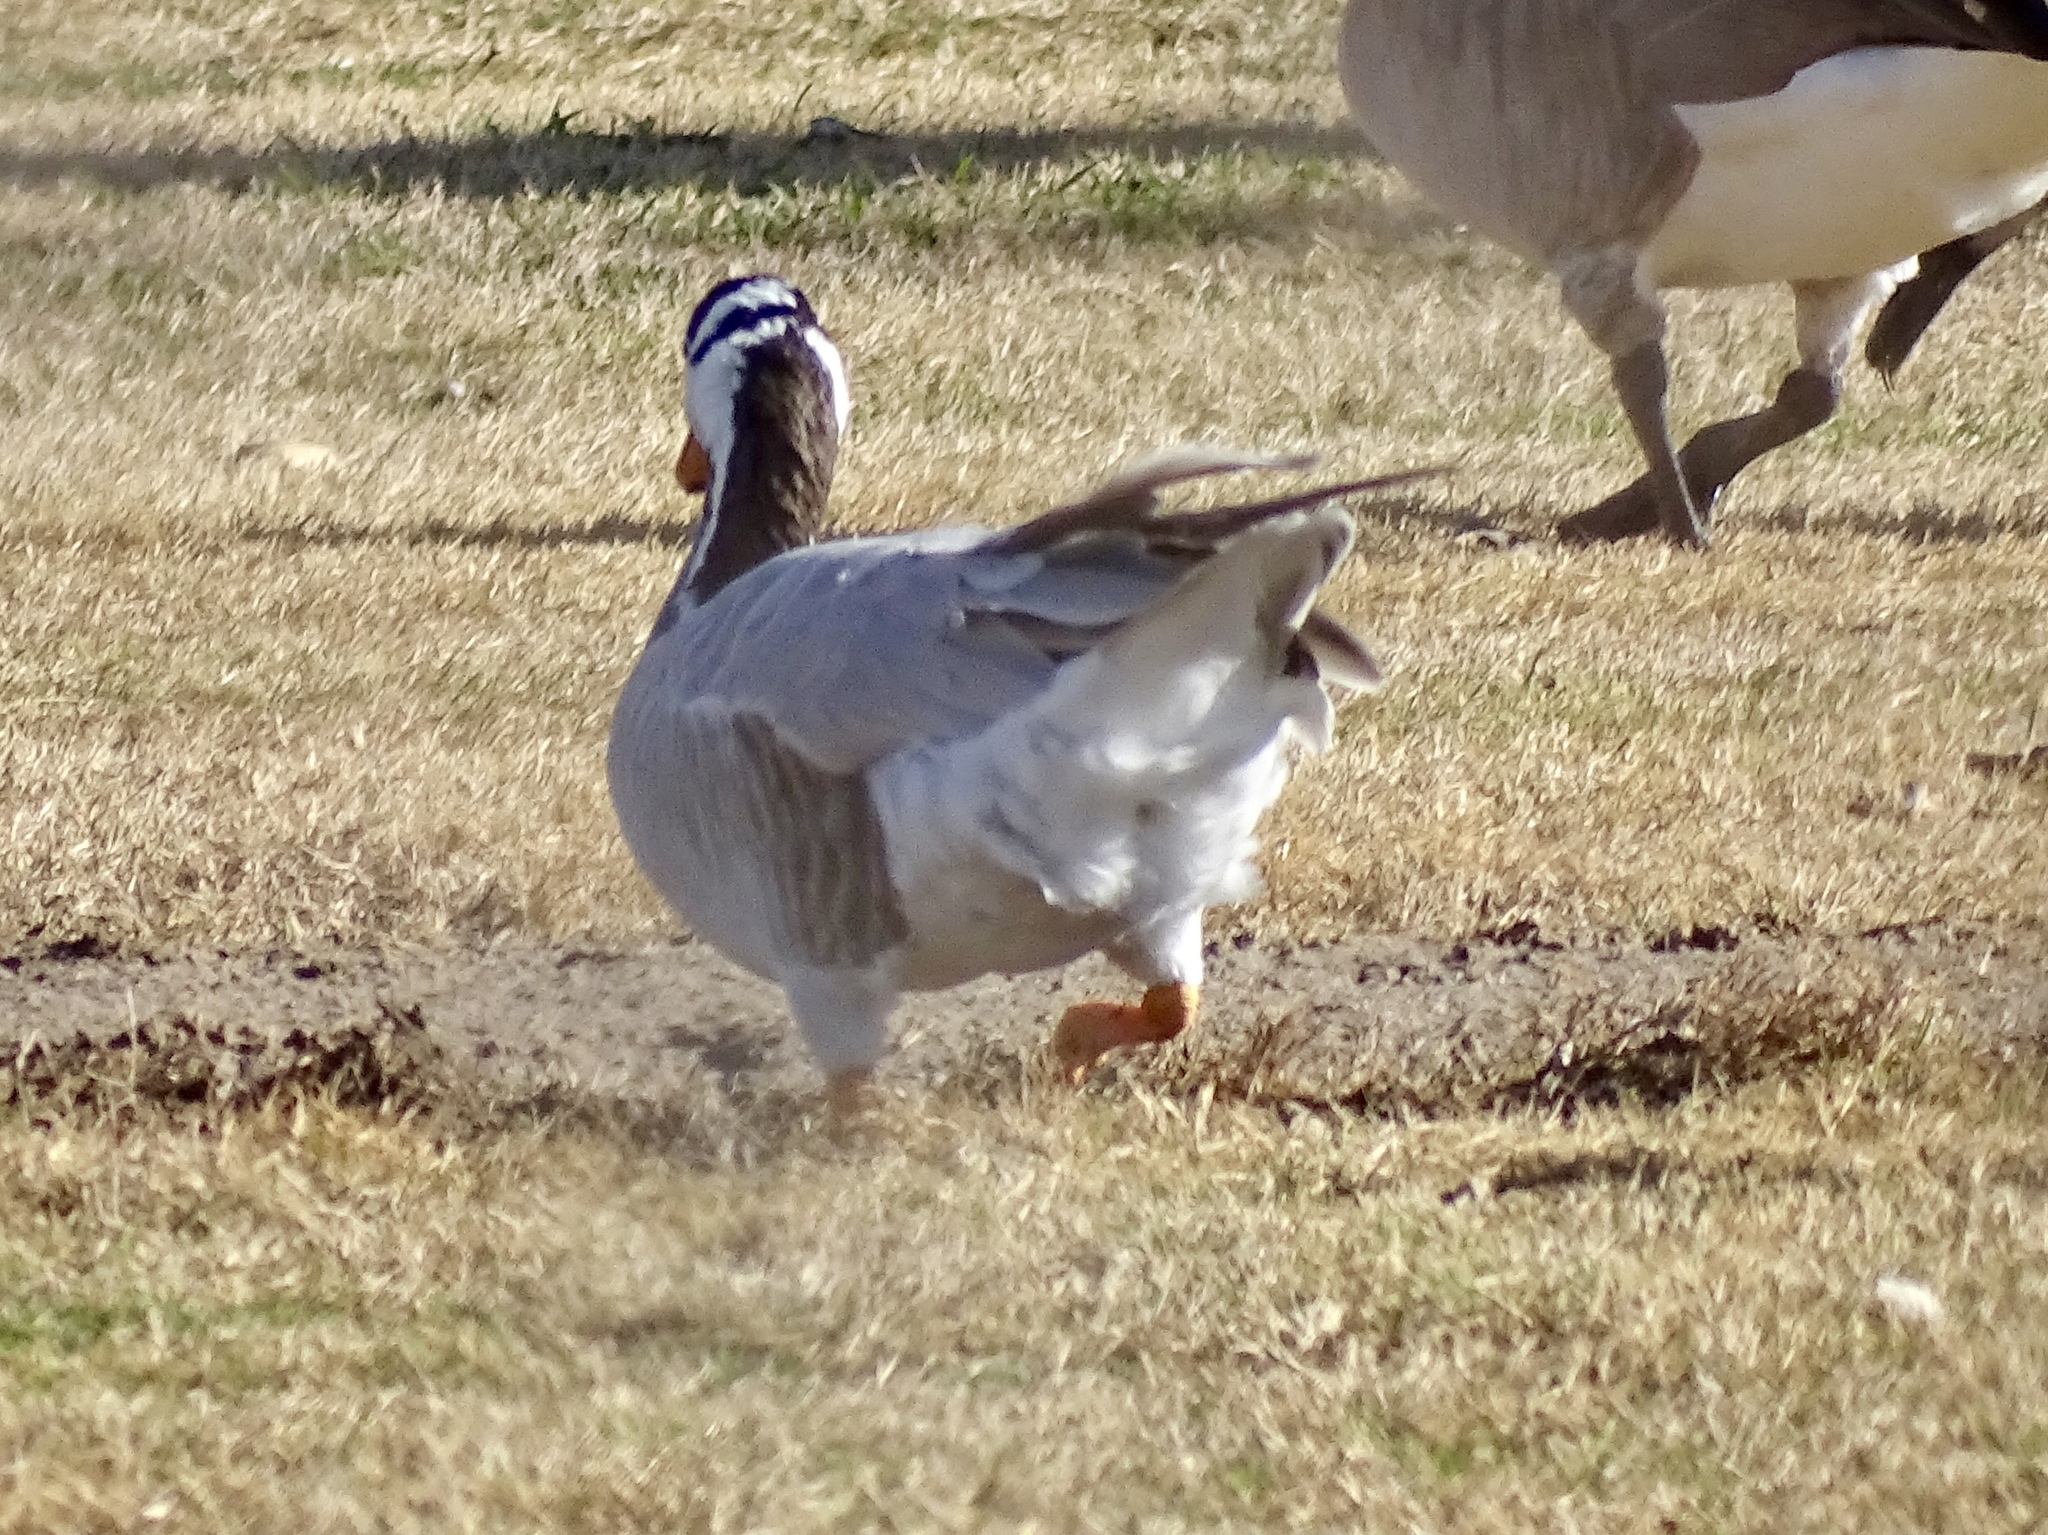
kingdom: Animalia
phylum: Chordata
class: Aves
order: Anseriformes
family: Anatidae
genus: Anser
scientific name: Anser indicus
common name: Bar-headed goose
